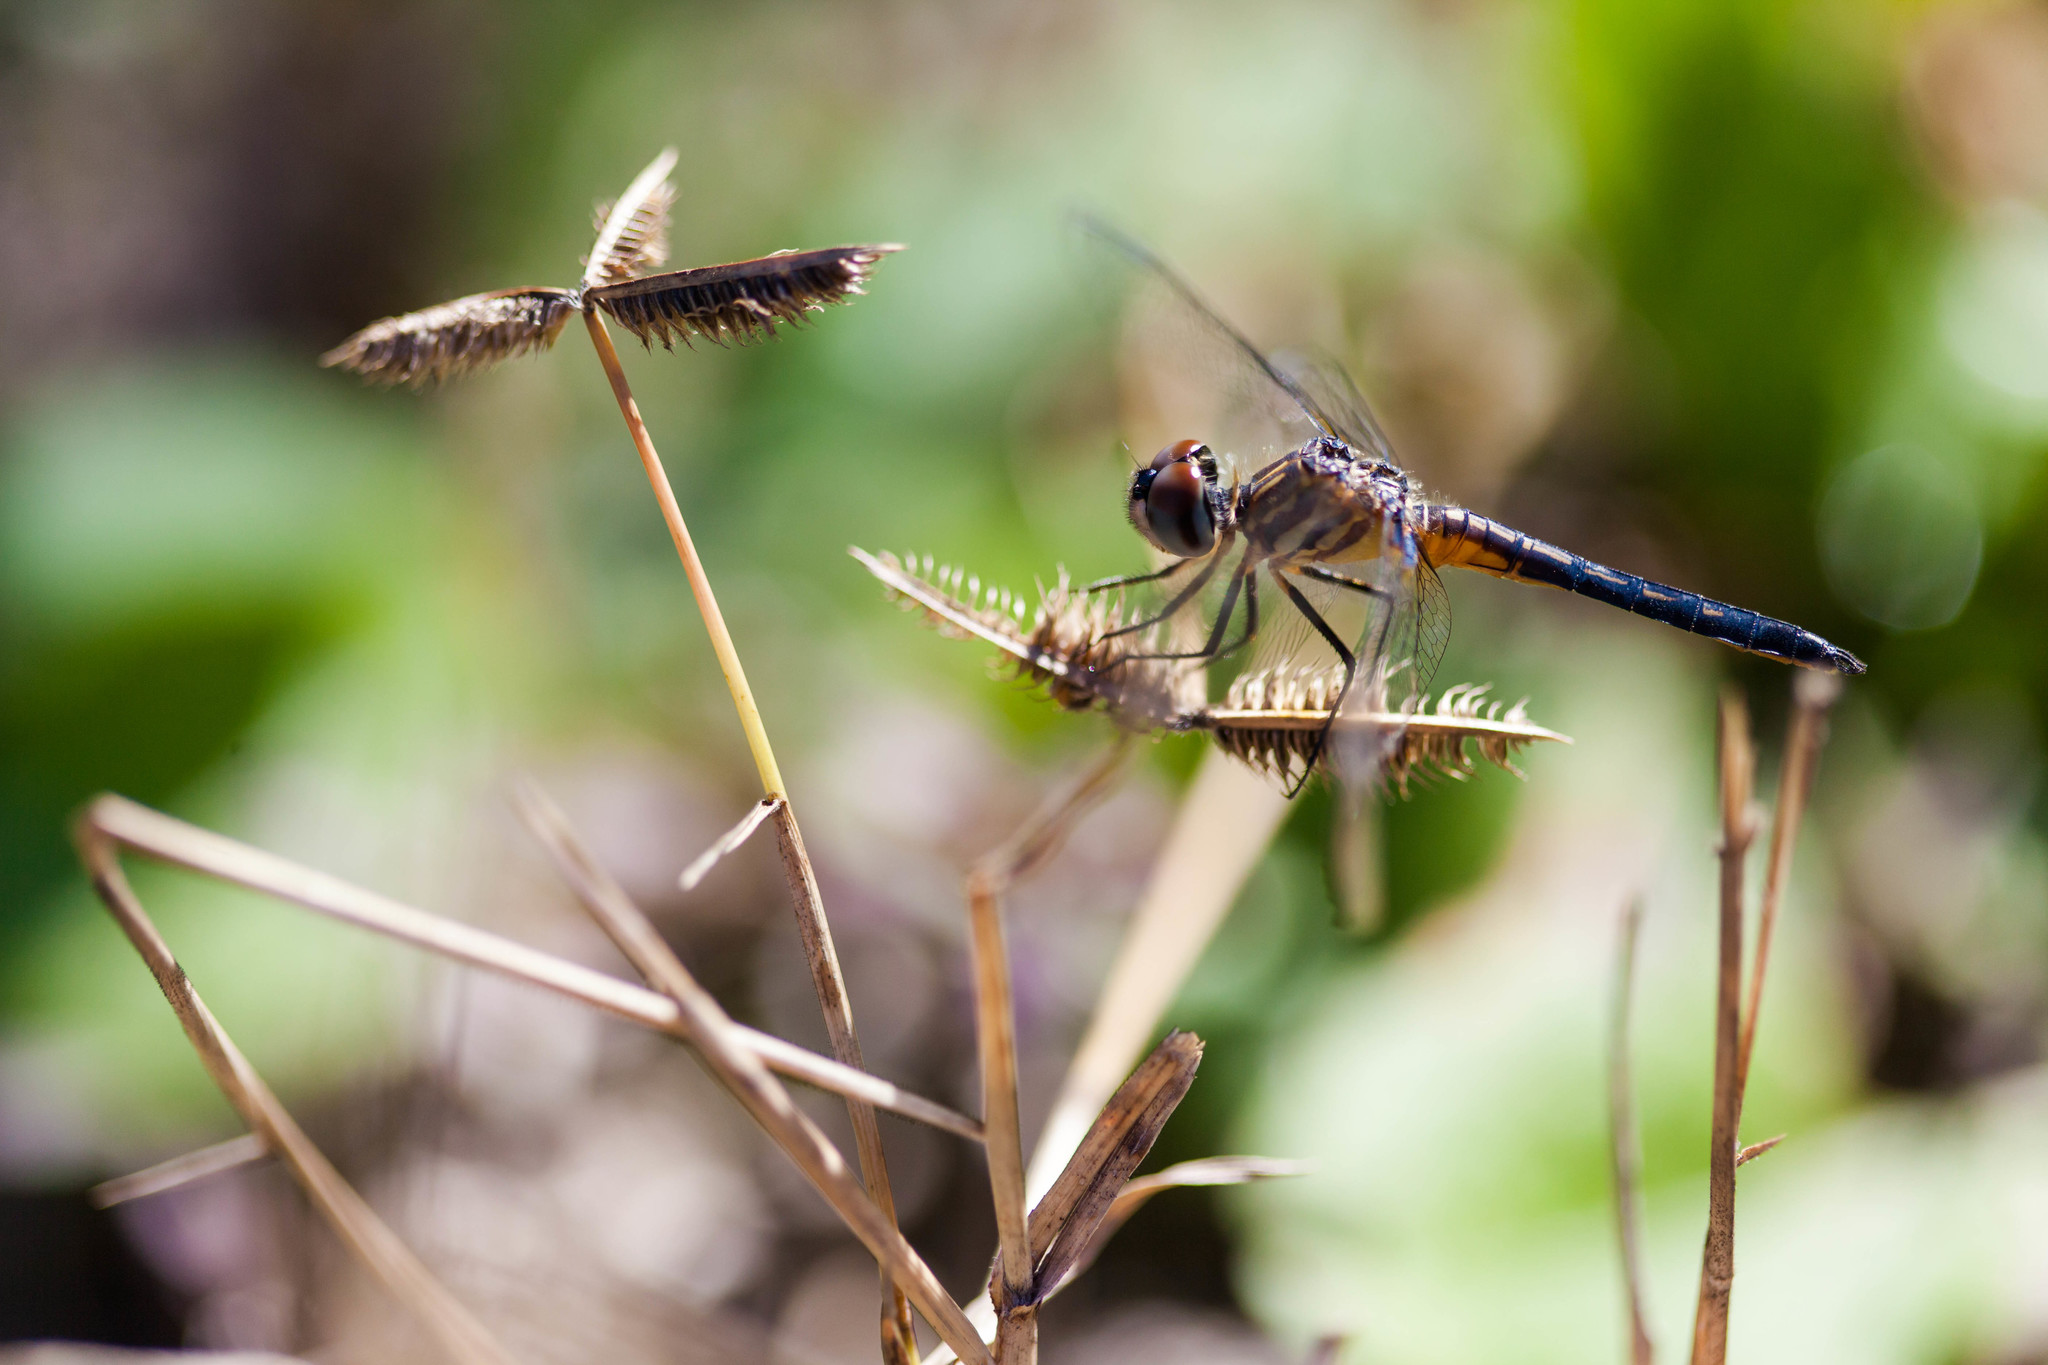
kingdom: Animalia
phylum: Arthropoda
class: Insecta
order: Odonata
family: Libellulidae
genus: Pachydiplax
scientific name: Pachydiplax longipennis
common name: Blue dasher
